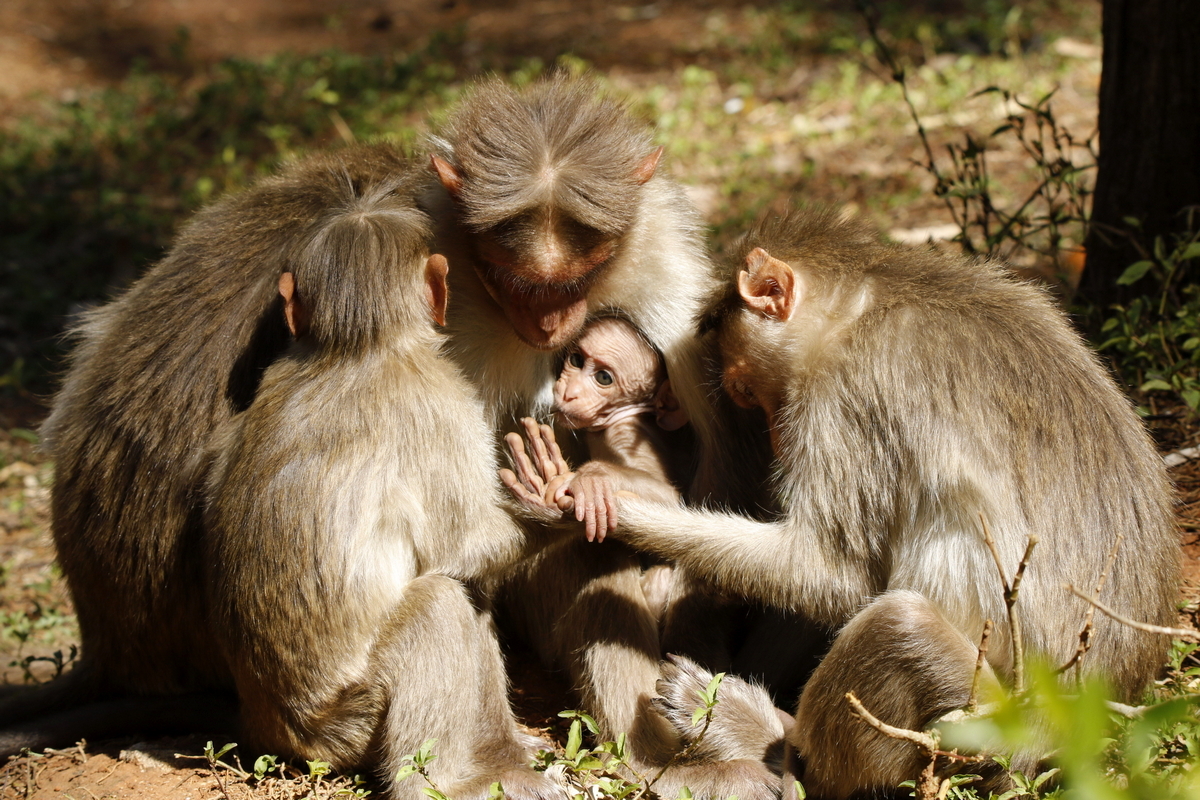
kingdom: Animalia
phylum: Chordata
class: Mammalia
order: Primates
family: Cercopithecidae
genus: Macaca
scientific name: Macaca radiata
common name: Bonnet macaque
